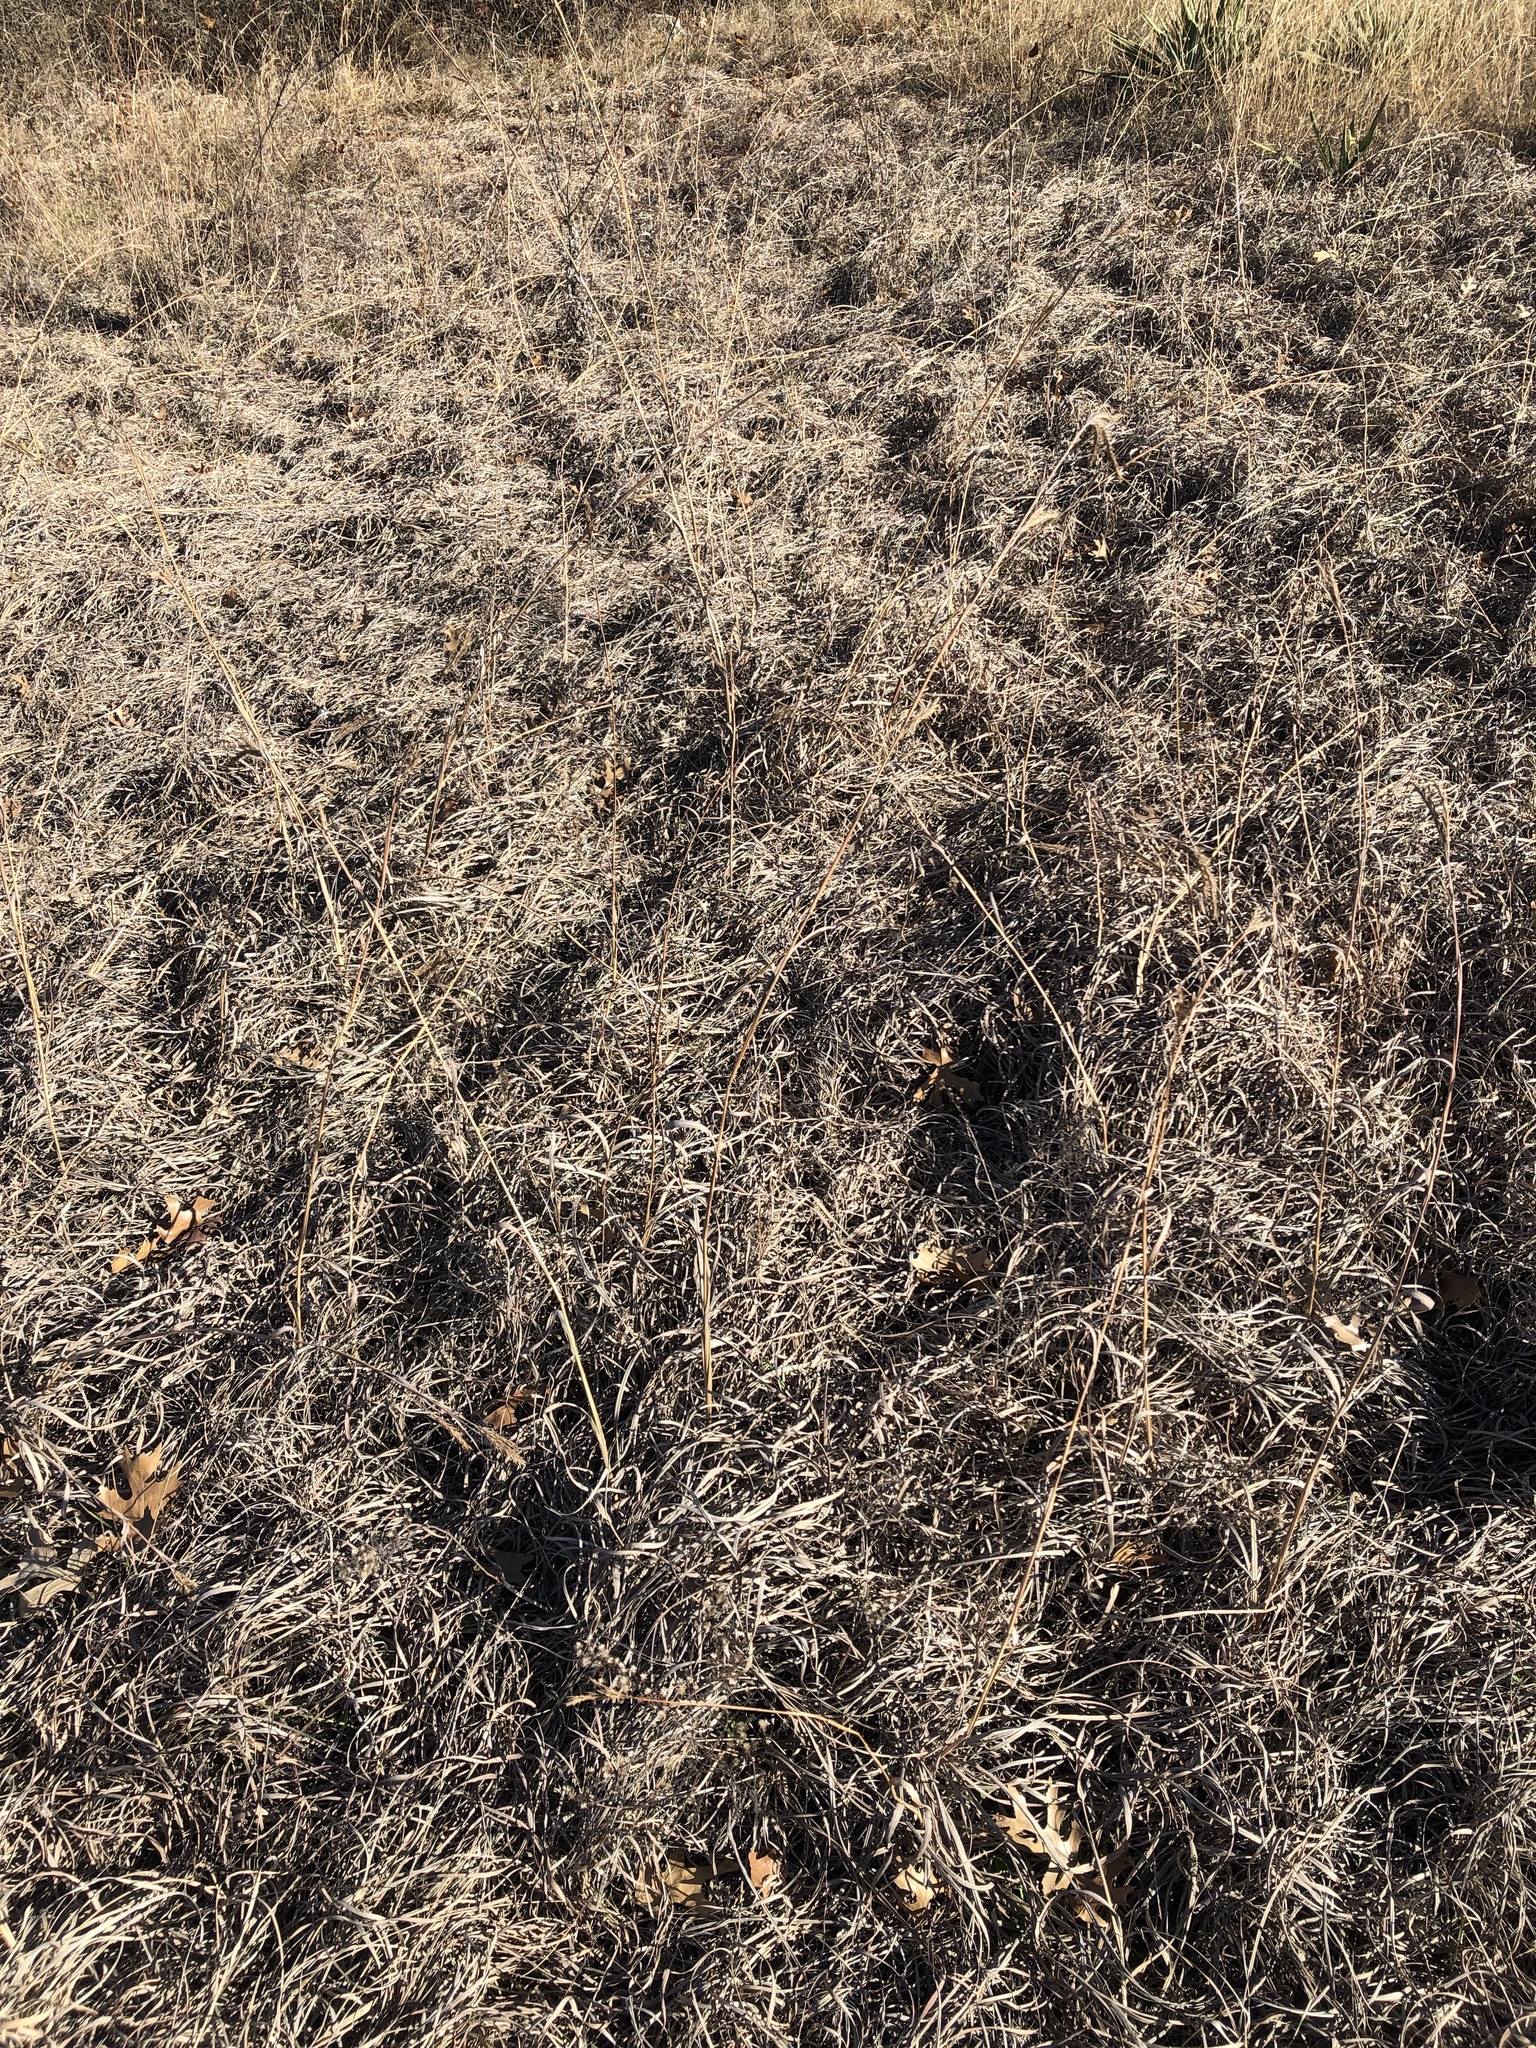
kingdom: Plantae
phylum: Tracheophyta
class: Liliopsida
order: Poales
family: Poaceae
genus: Andropogon
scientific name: Andropogon gerardi
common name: Big bluestem
